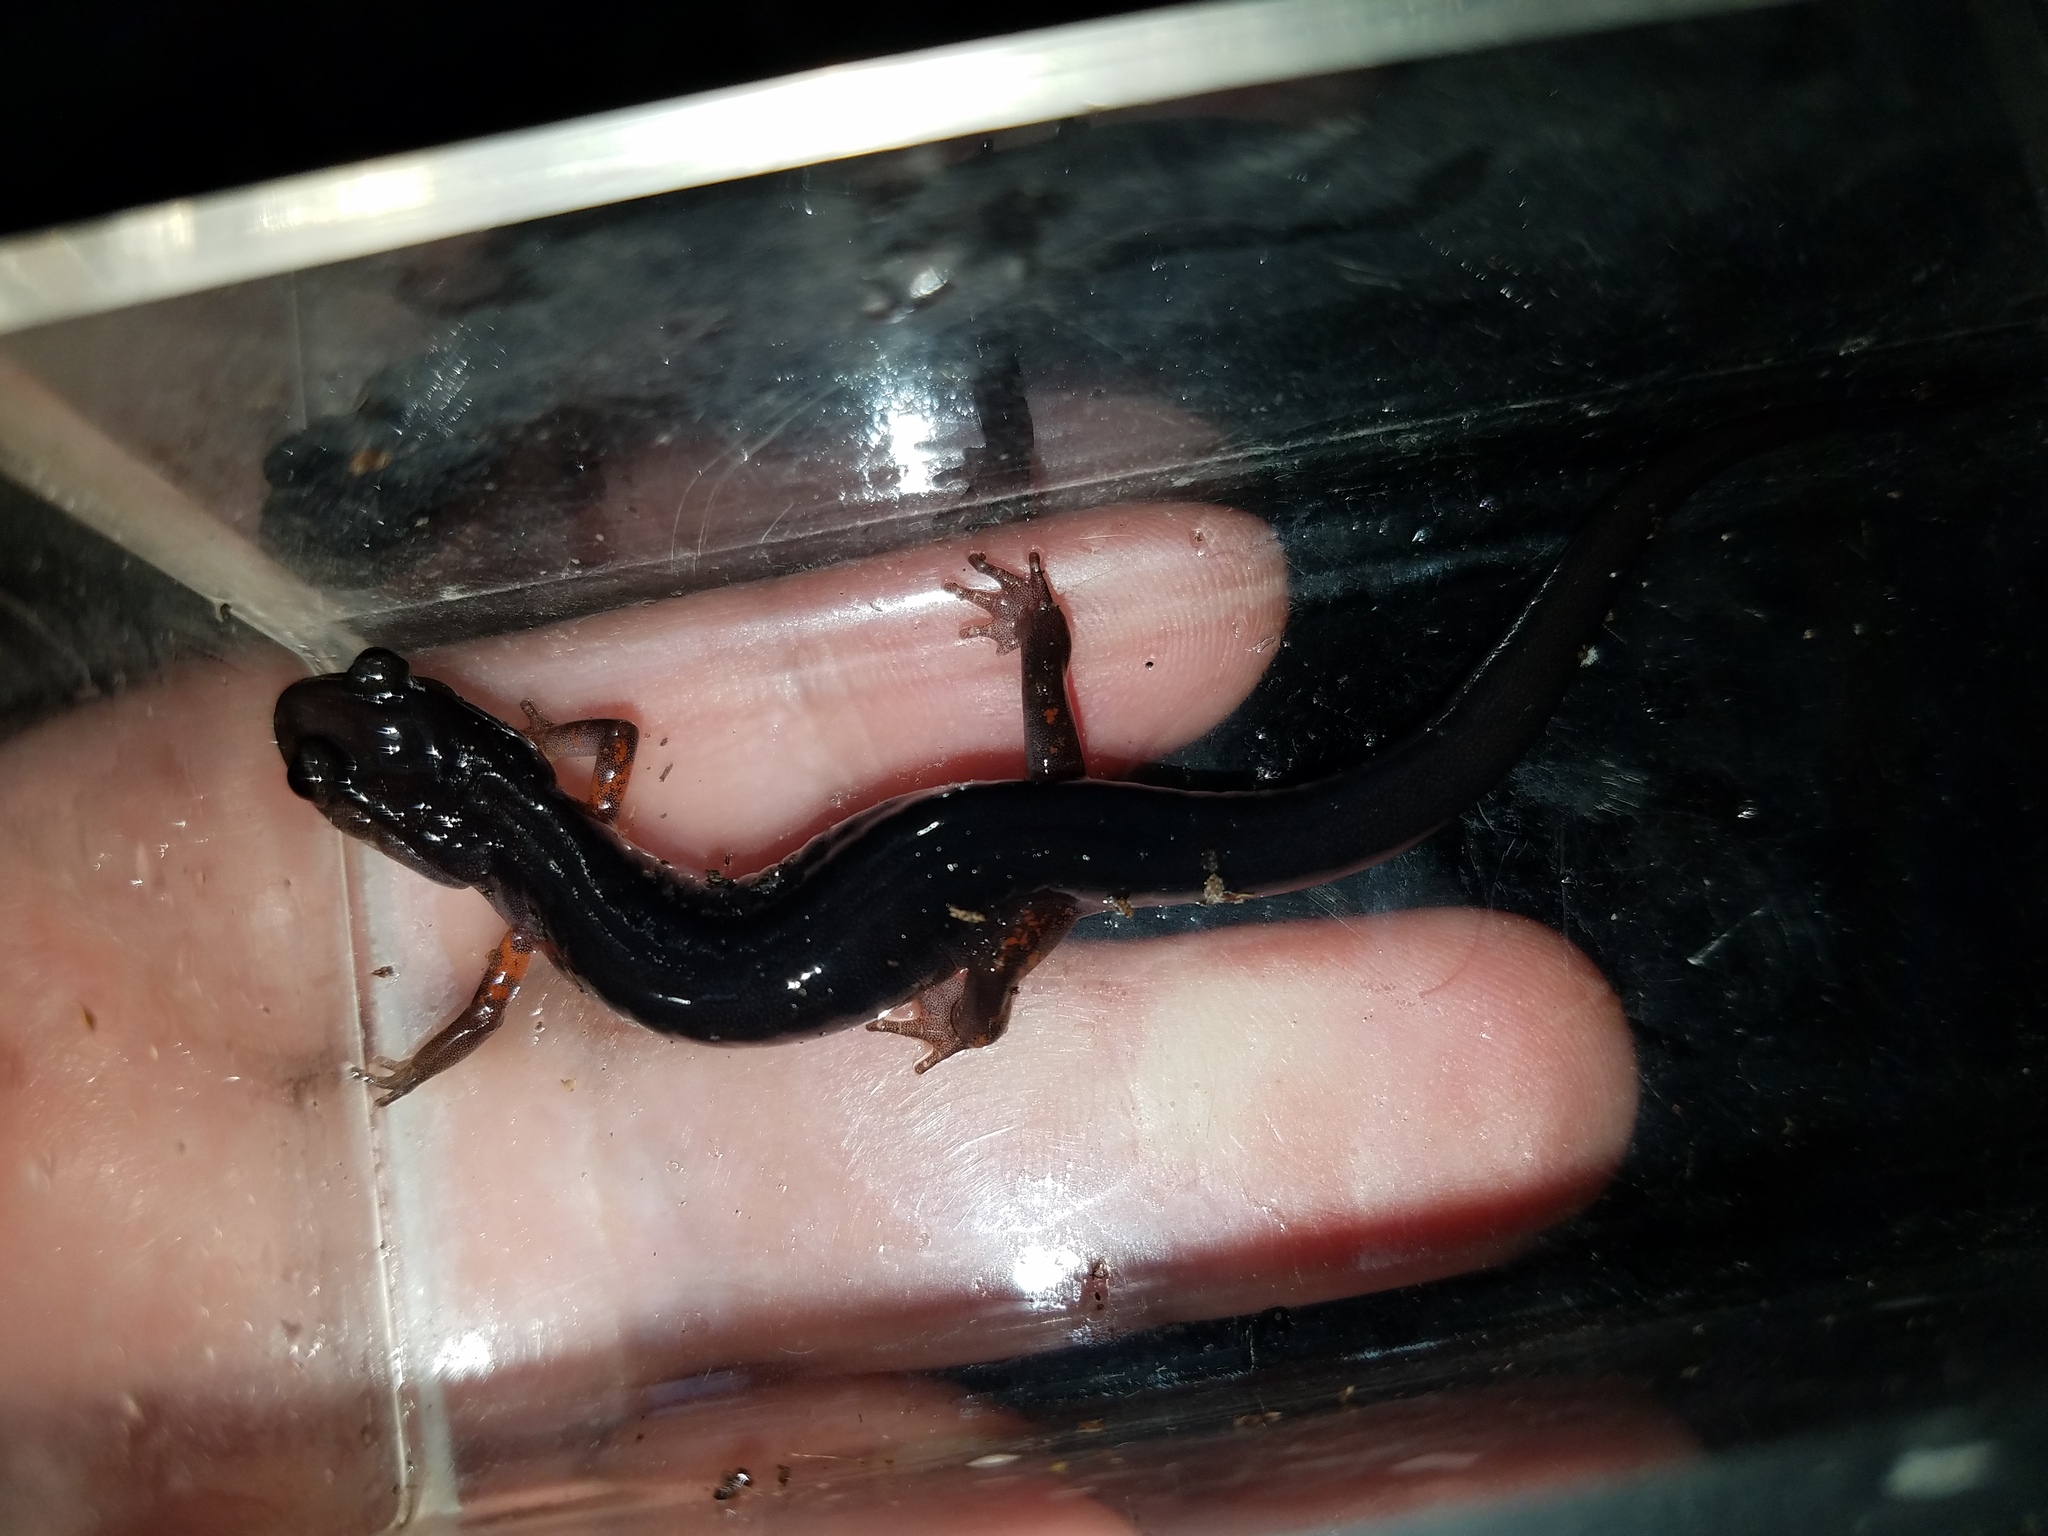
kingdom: Animalia
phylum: Chordata
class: Amphibia
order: Caudata
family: Plethodontidae
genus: Plethodon
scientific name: Plethodon shermani
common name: Red-legged salamander
